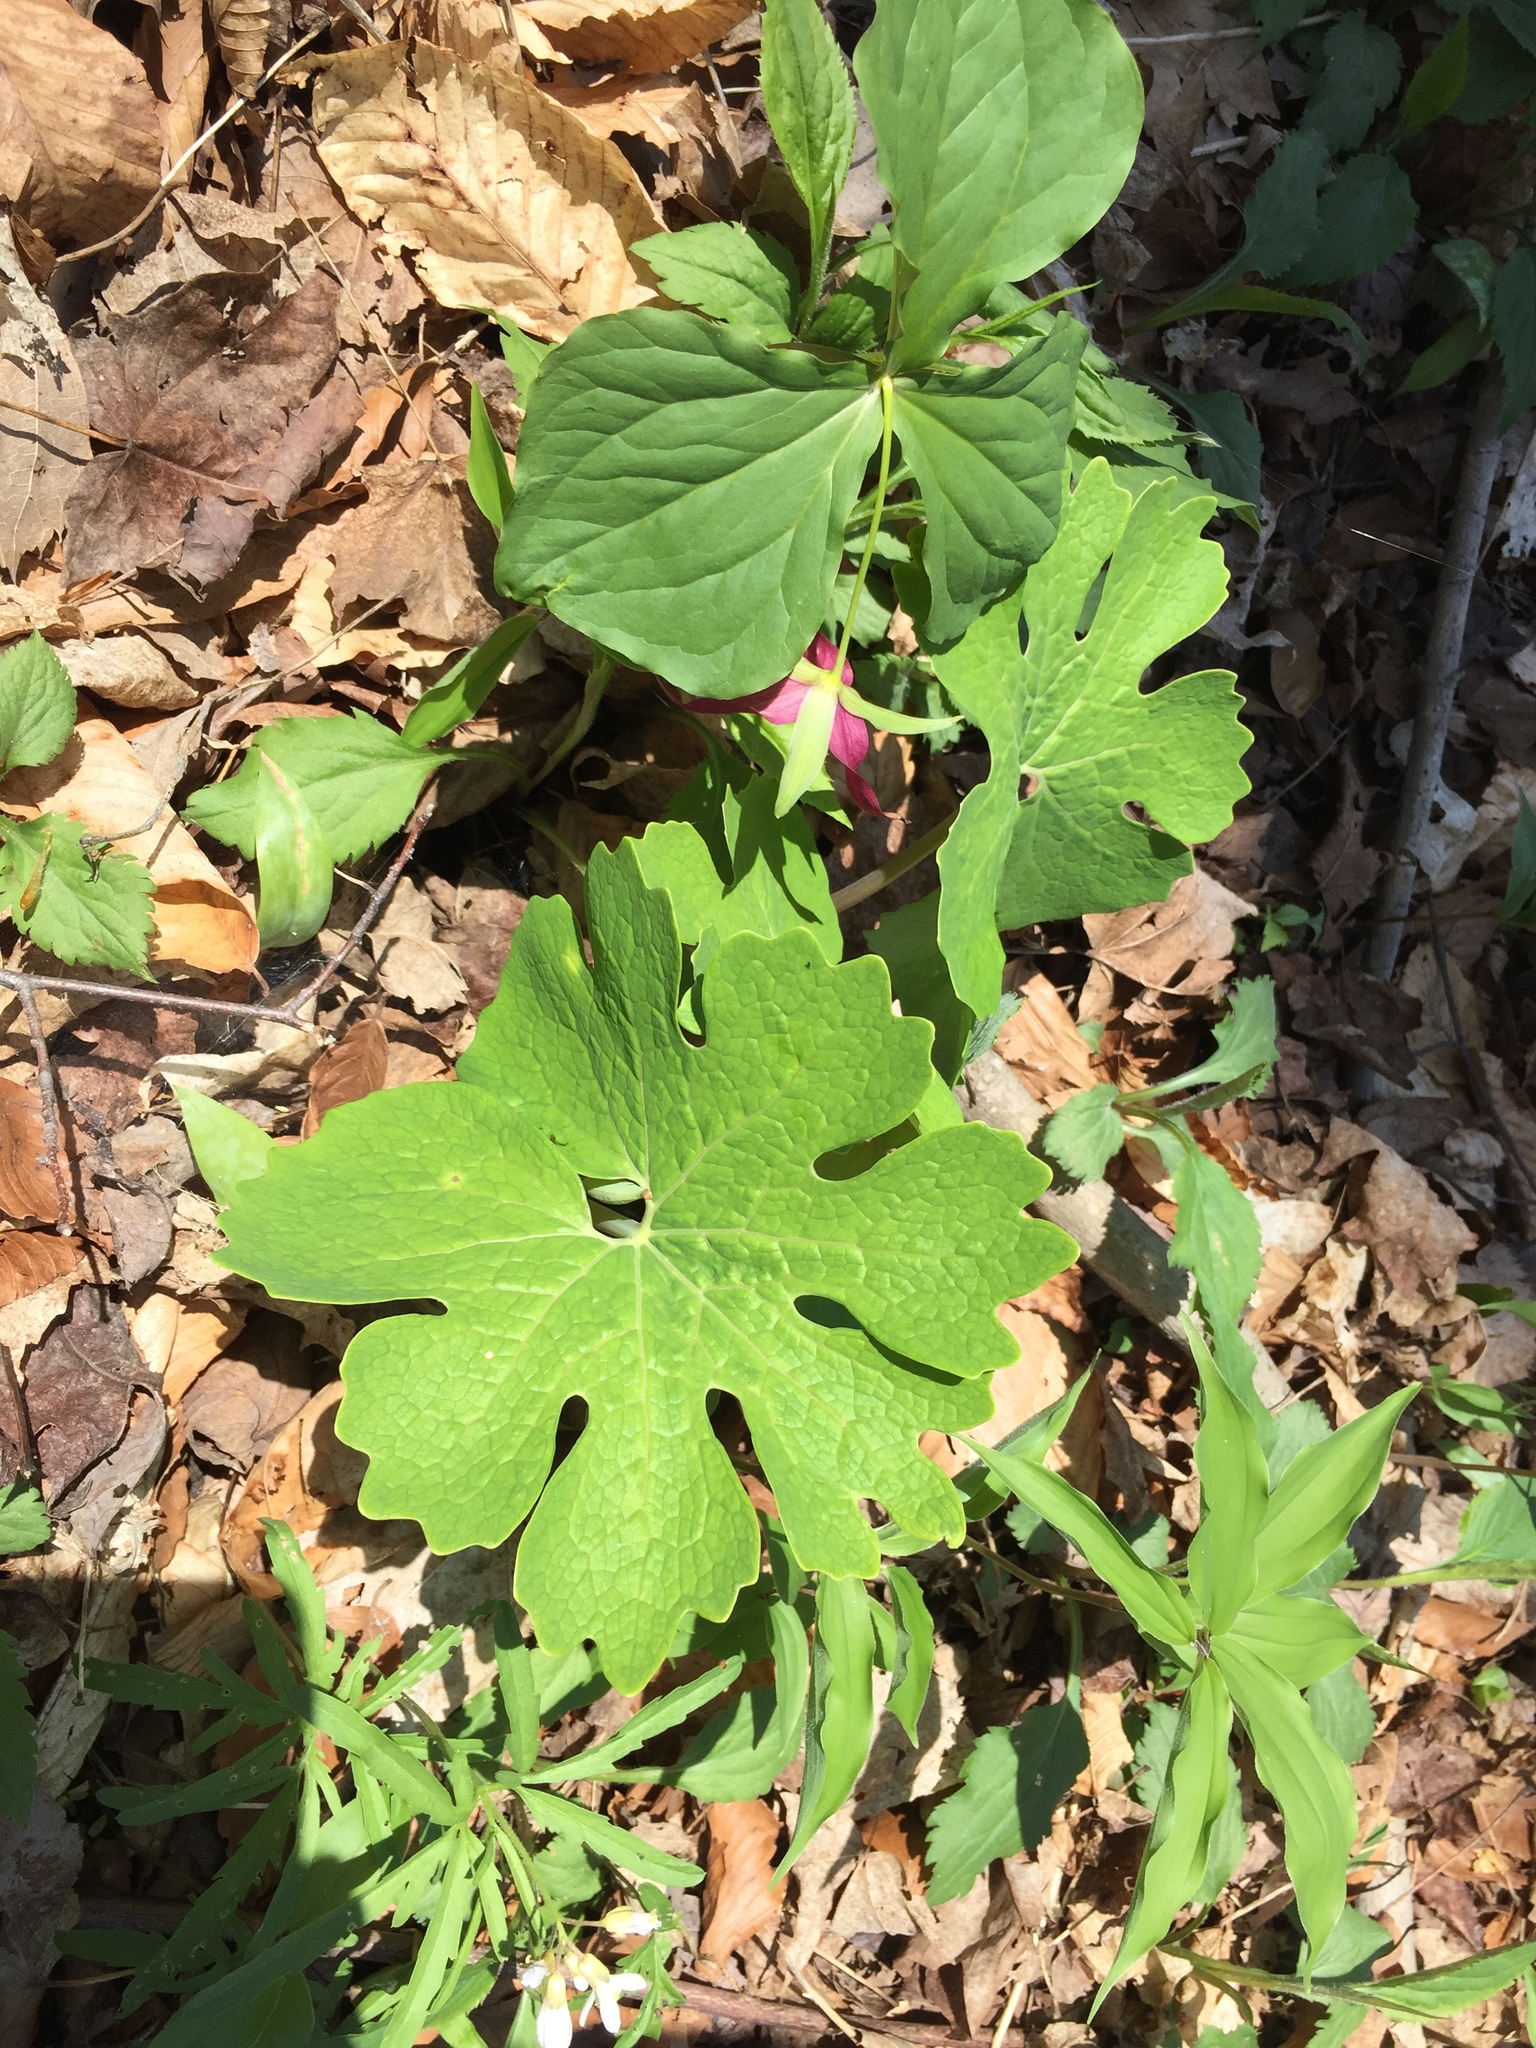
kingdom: Plantae
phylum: Tracheophyta
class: Magnoliopsida
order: Ranunculales
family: Papaveraceae
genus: Sanguinaria
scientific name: Sanguinaria canadensis
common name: Bloodroot
